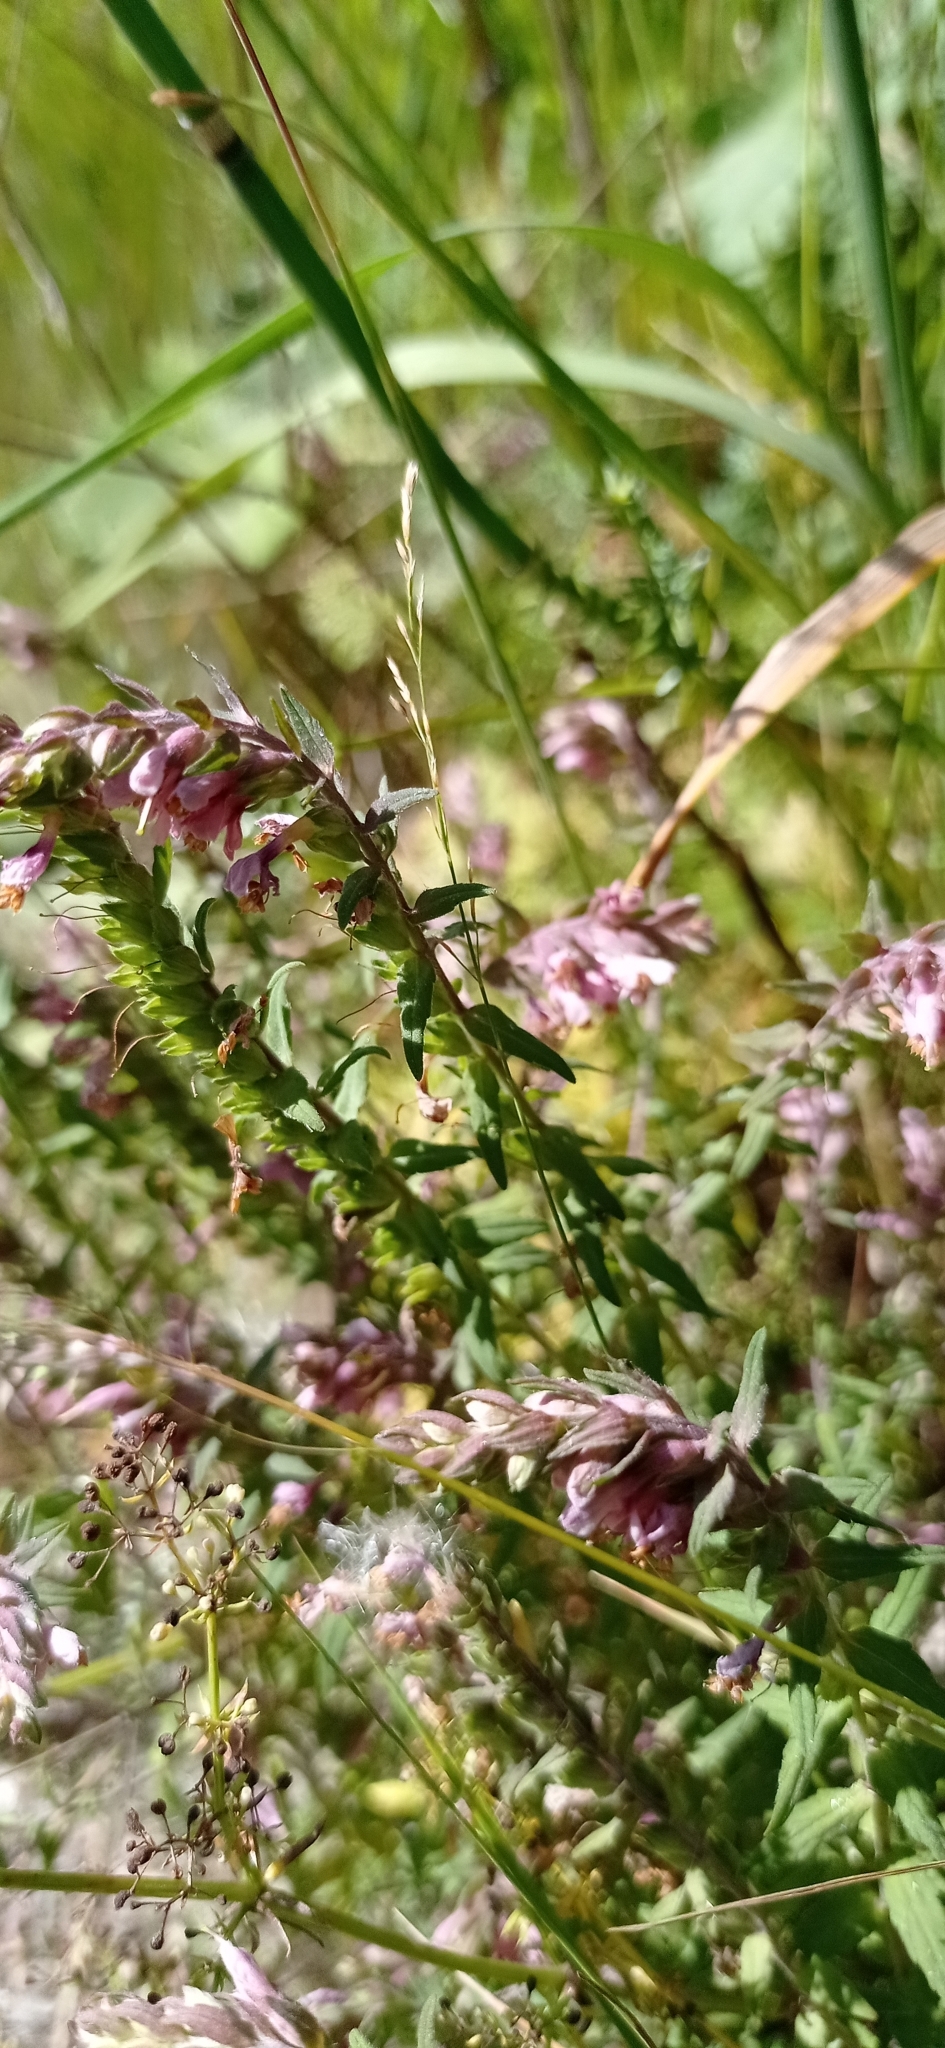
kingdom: Plantae
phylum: Tracheophyta
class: Magnoliopsida
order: Lamiales
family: Orobanchaceae
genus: Odontites
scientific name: Odontites vulgaris
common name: Broomrape
